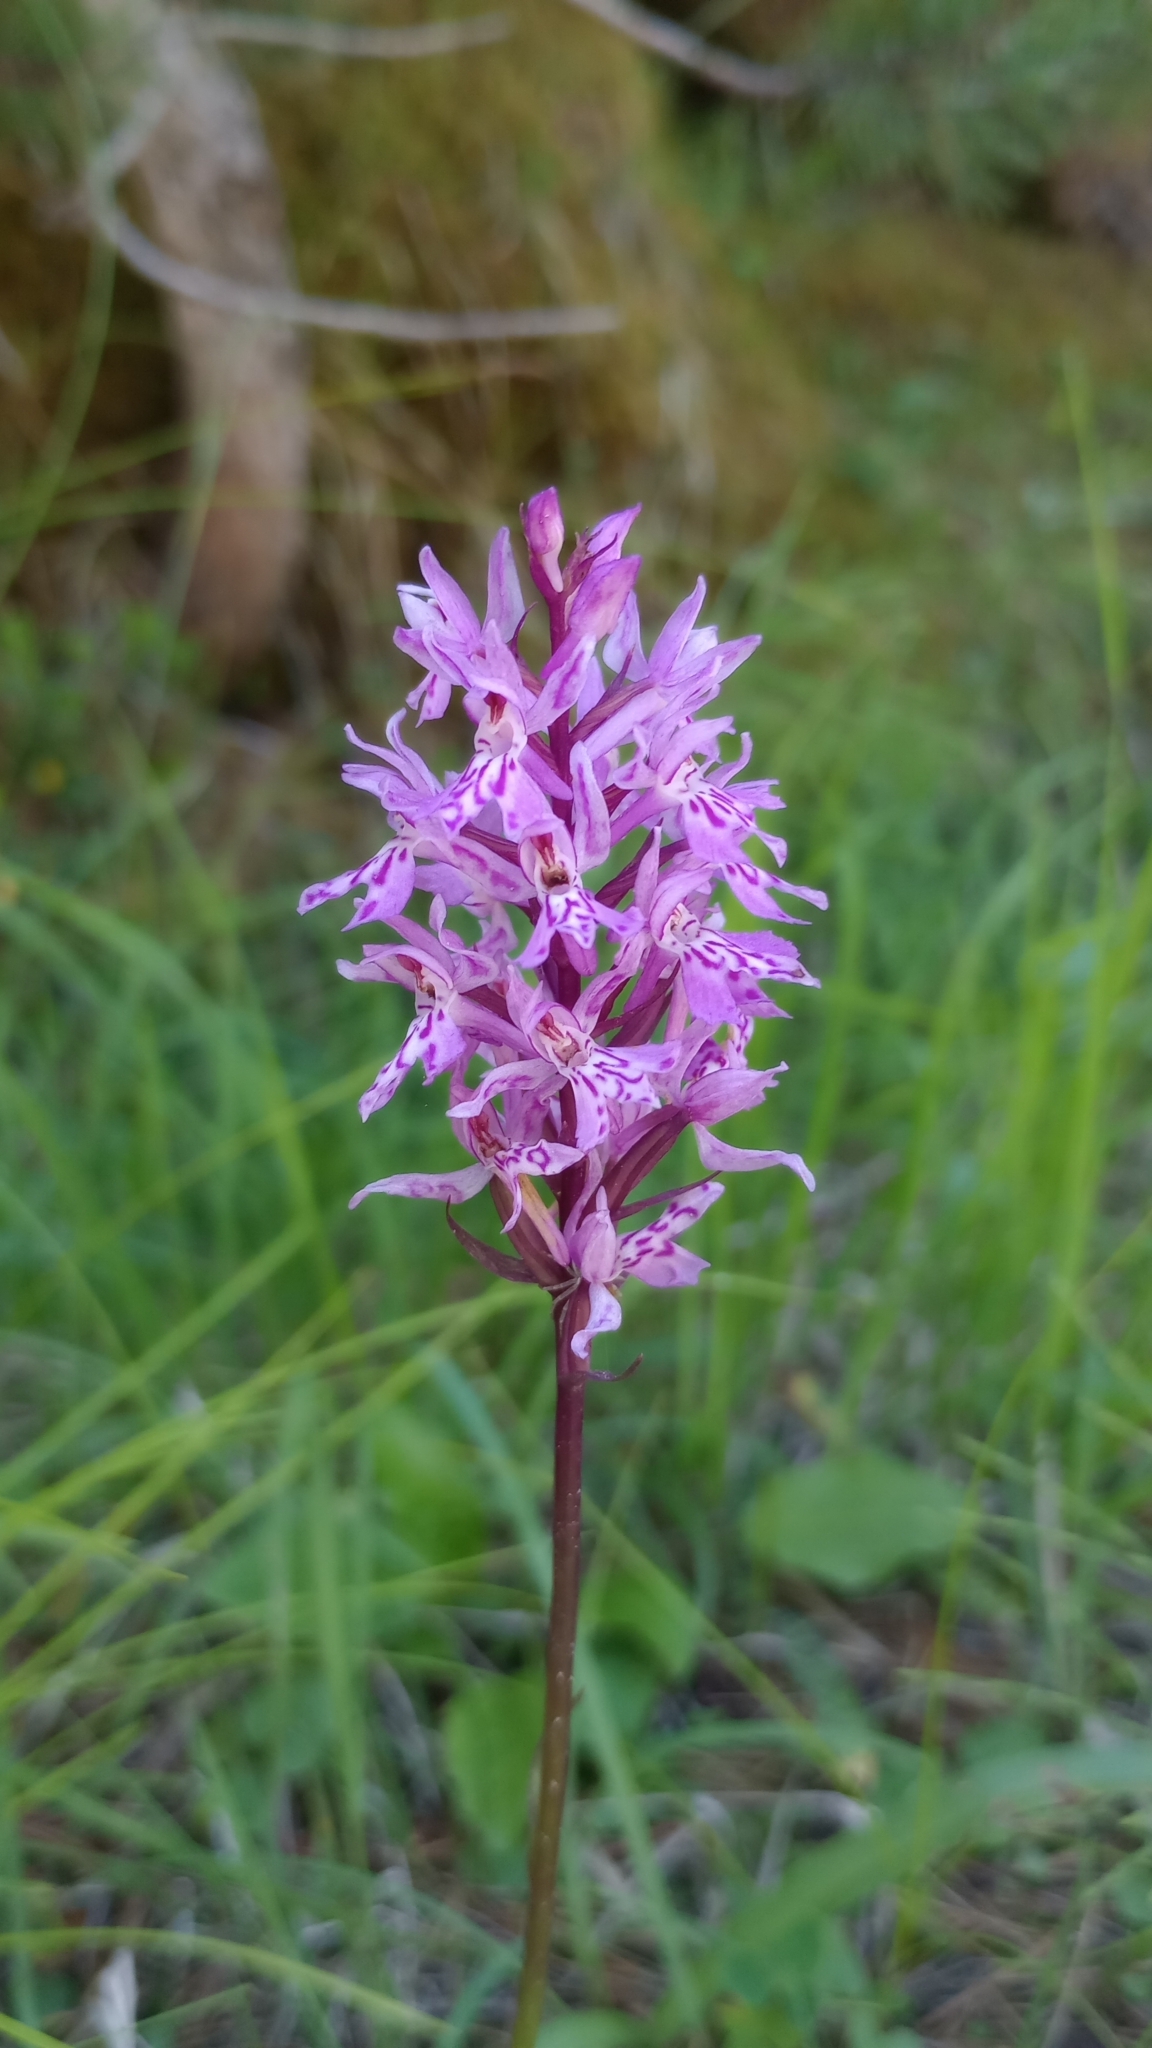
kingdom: Plantae
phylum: Tracheophyta
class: Liliopsida
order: Asparagales
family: Orchidaceae
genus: Dactylorhiza
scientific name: Dactylorhiza maculata
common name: Heath spotted-orchid
